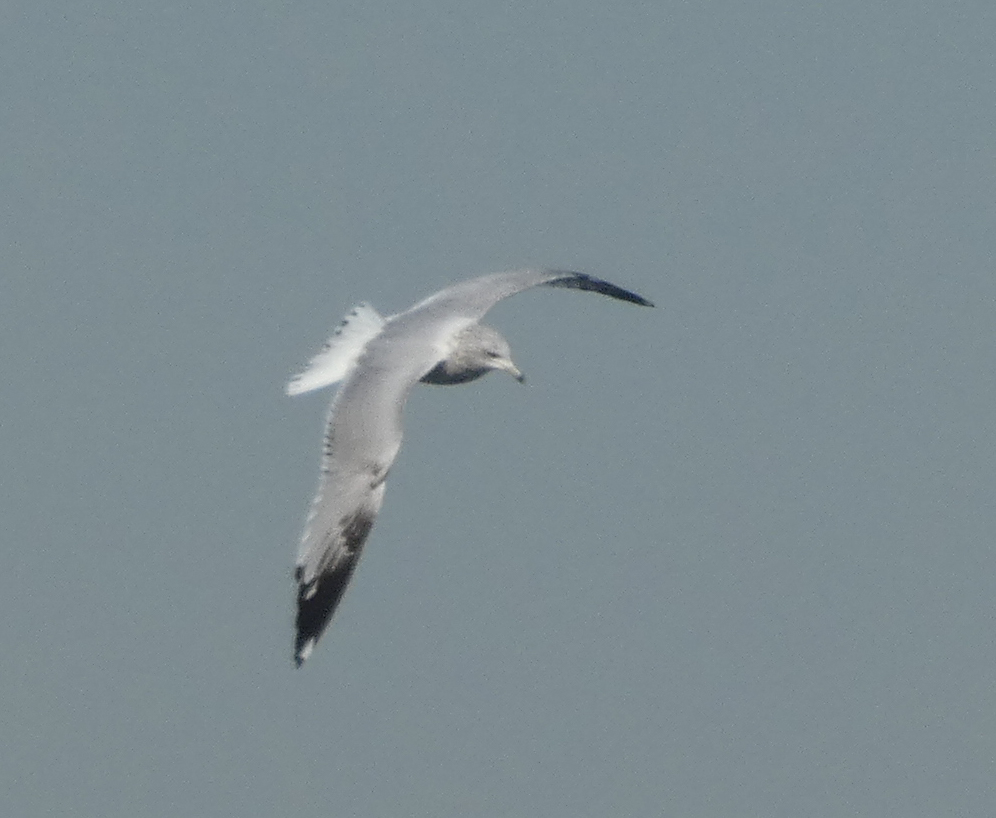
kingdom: Animalia
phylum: Chordata
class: Aves
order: Charadriiformes
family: Laridae
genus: Larus
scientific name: Larus delawarensis
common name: Ring-billed gull
